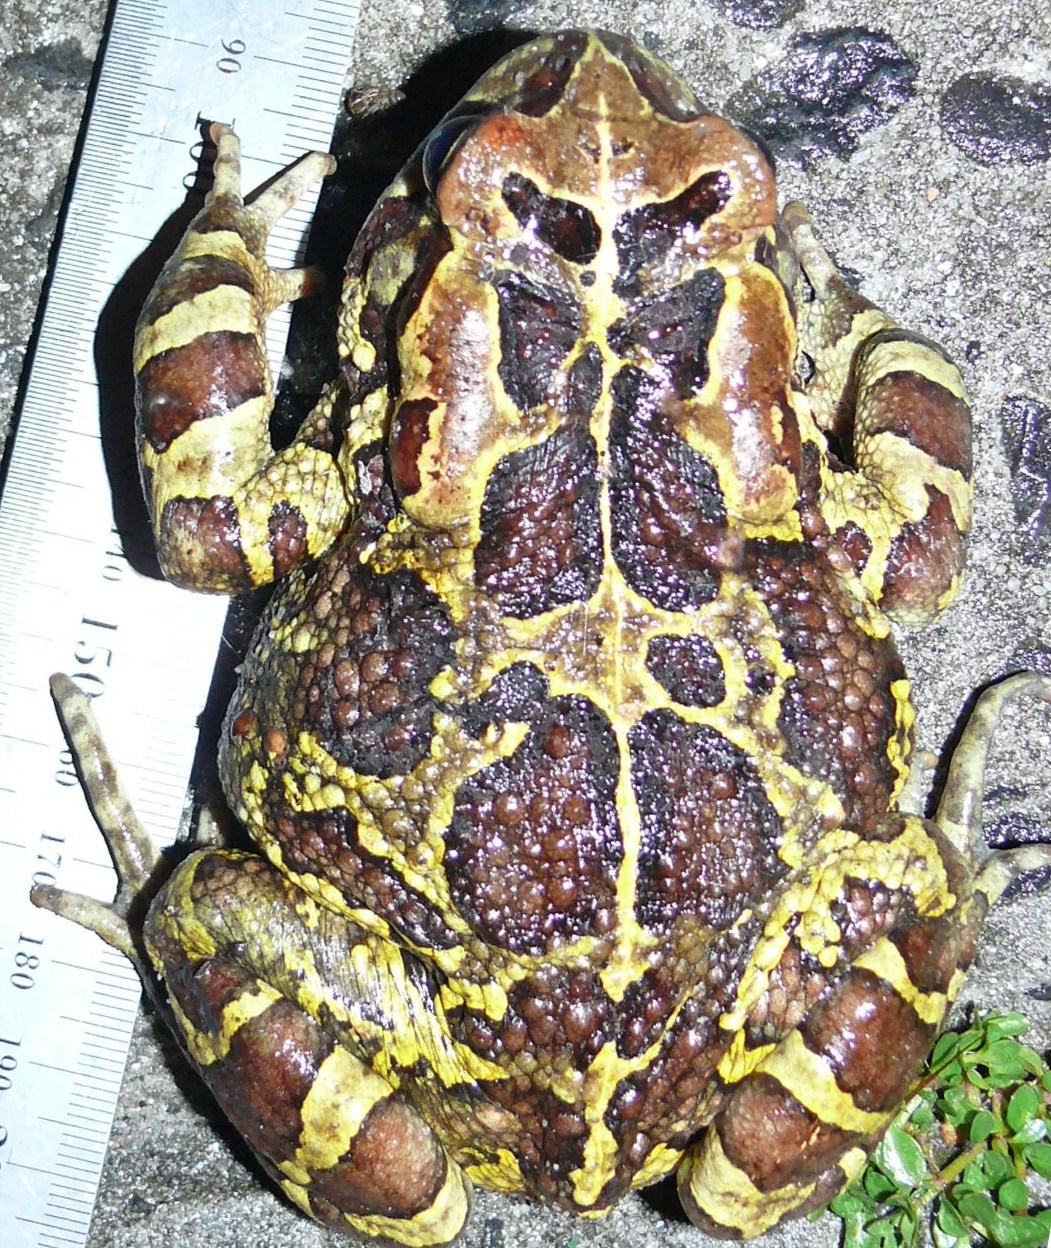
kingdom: Animalia
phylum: Chordata
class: Amphibia
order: Anura
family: Bufonidae
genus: Sclerophrys
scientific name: Sclerophrys pantherina
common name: Panther toad
